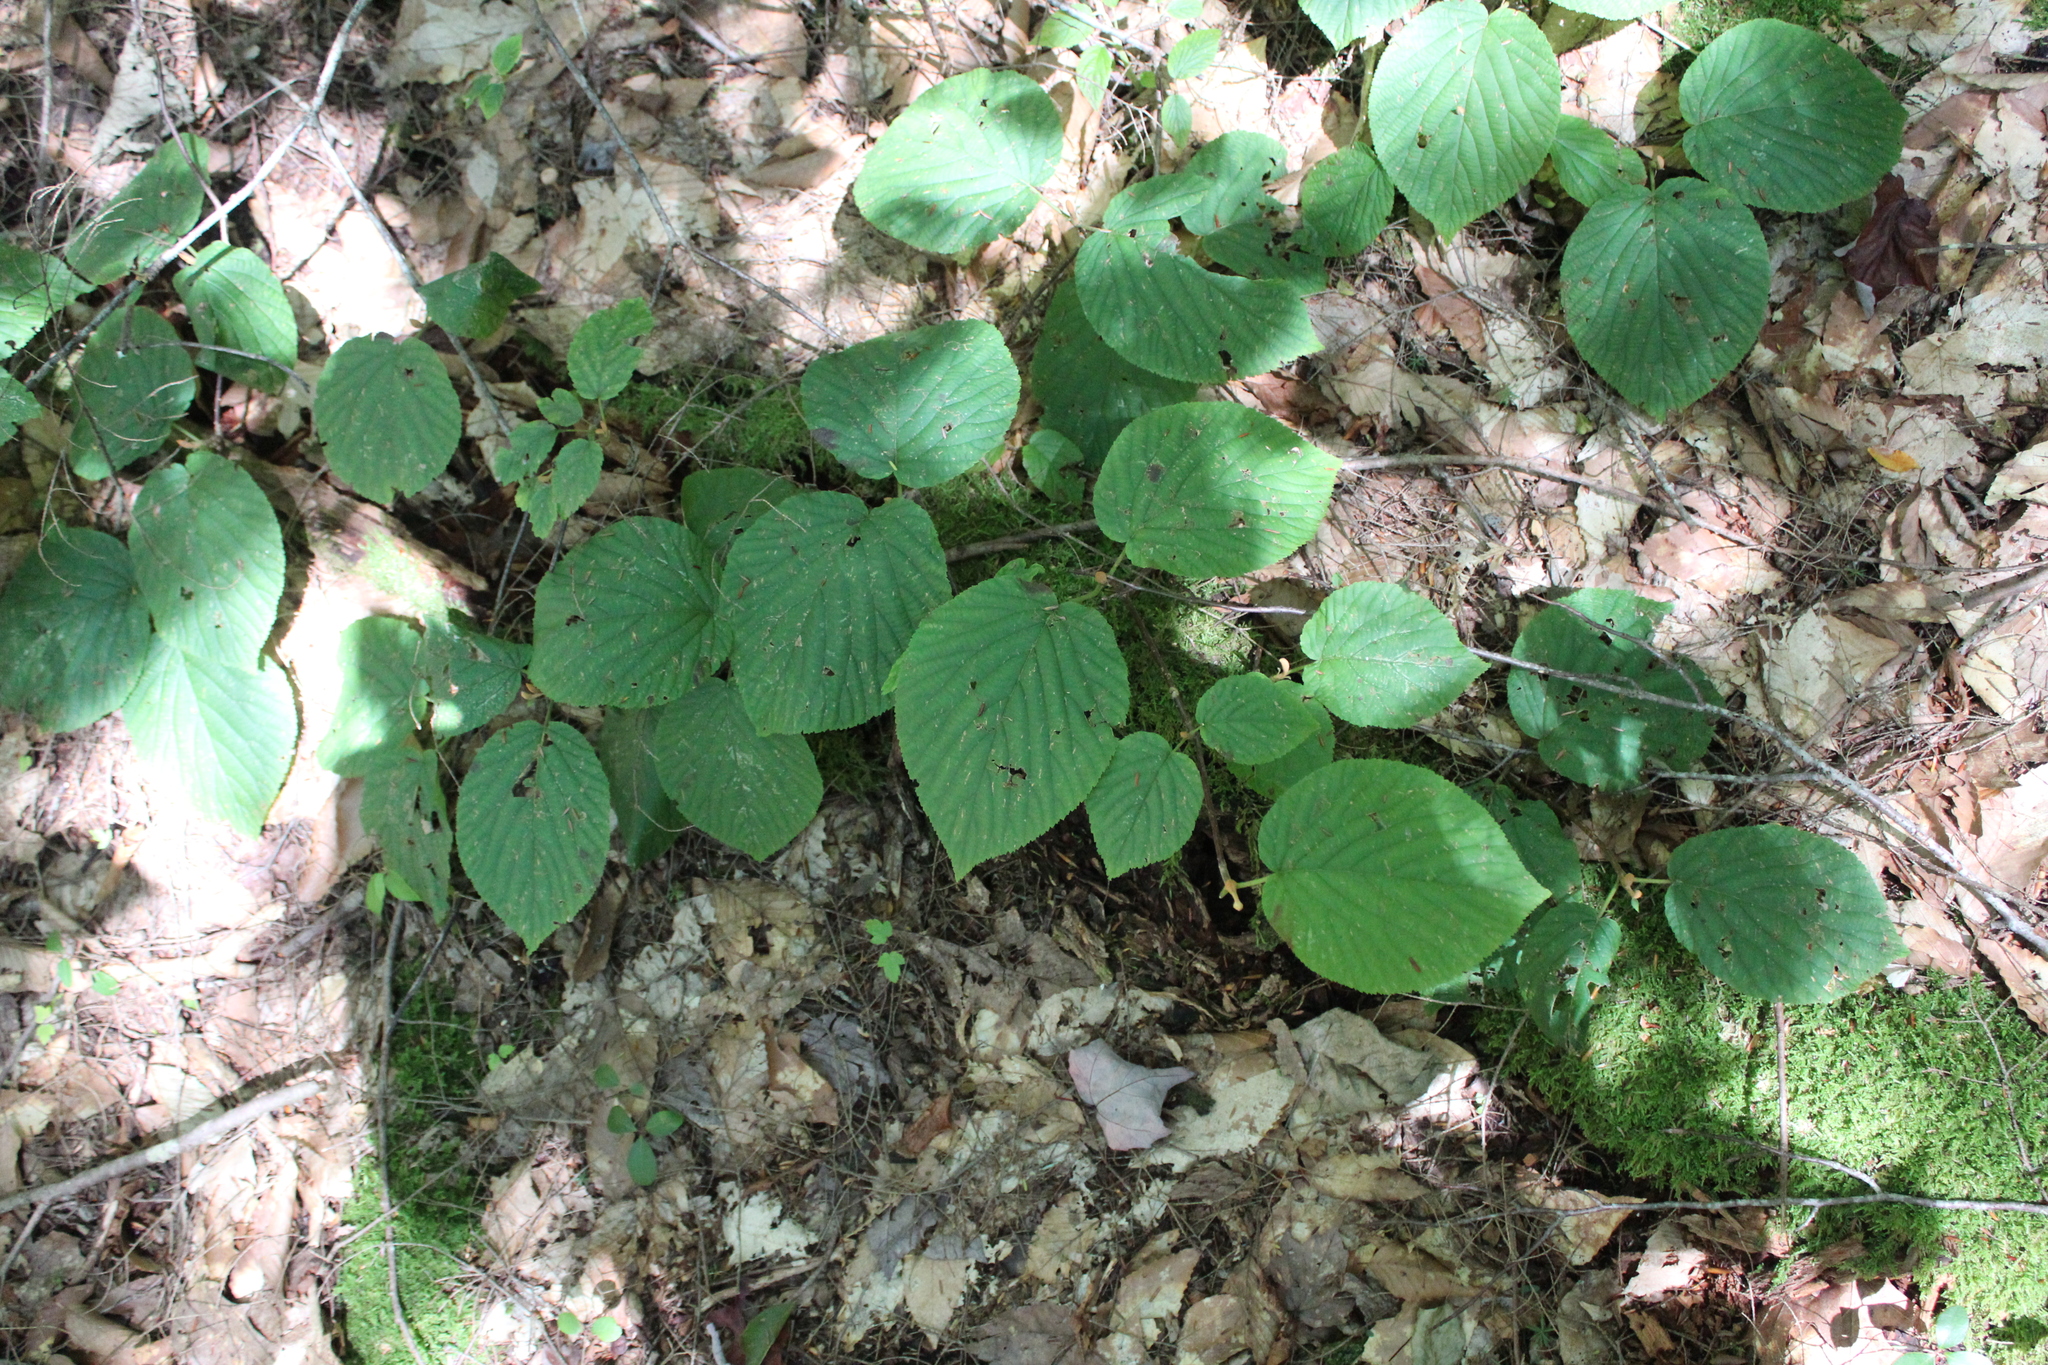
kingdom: Plantae
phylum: Tracheophyta
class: Magnoliopsida
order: Dipsacales
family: Viburnaceae
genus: Viburnum
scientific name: Viburnum lantanoides
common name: Hobblebush
